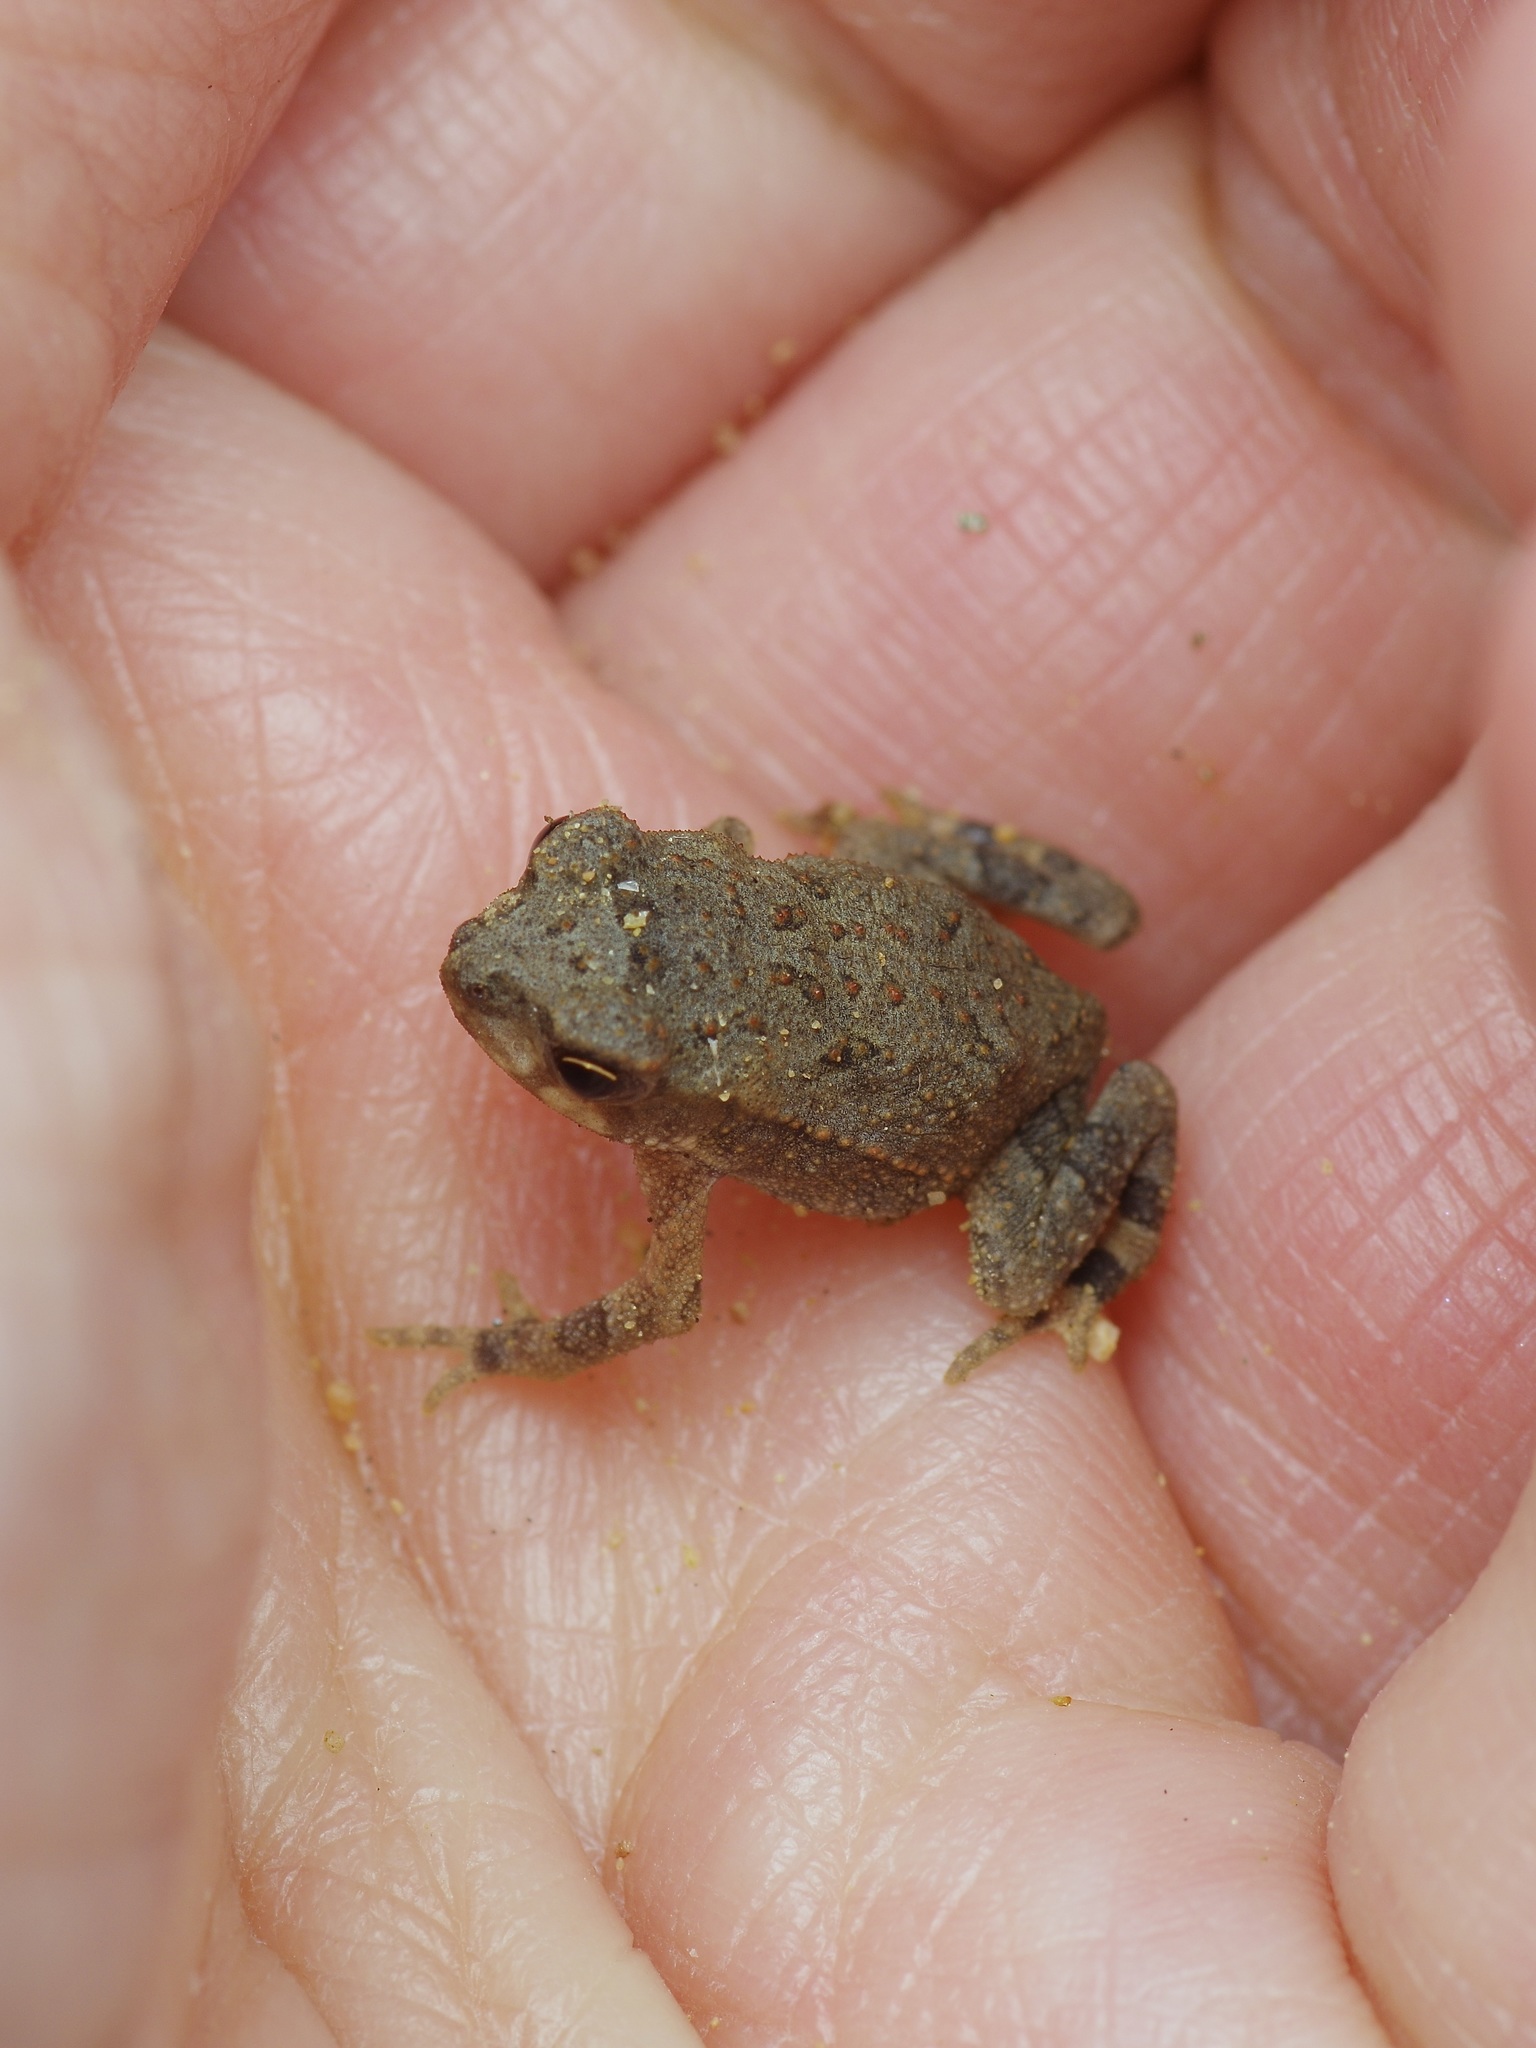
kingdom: Animalia
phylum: Chordata
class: Amphibia
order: Anura
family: Bufonidae
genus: Incilius
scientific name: Incilius nebulifer
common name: Gulf coast toad
